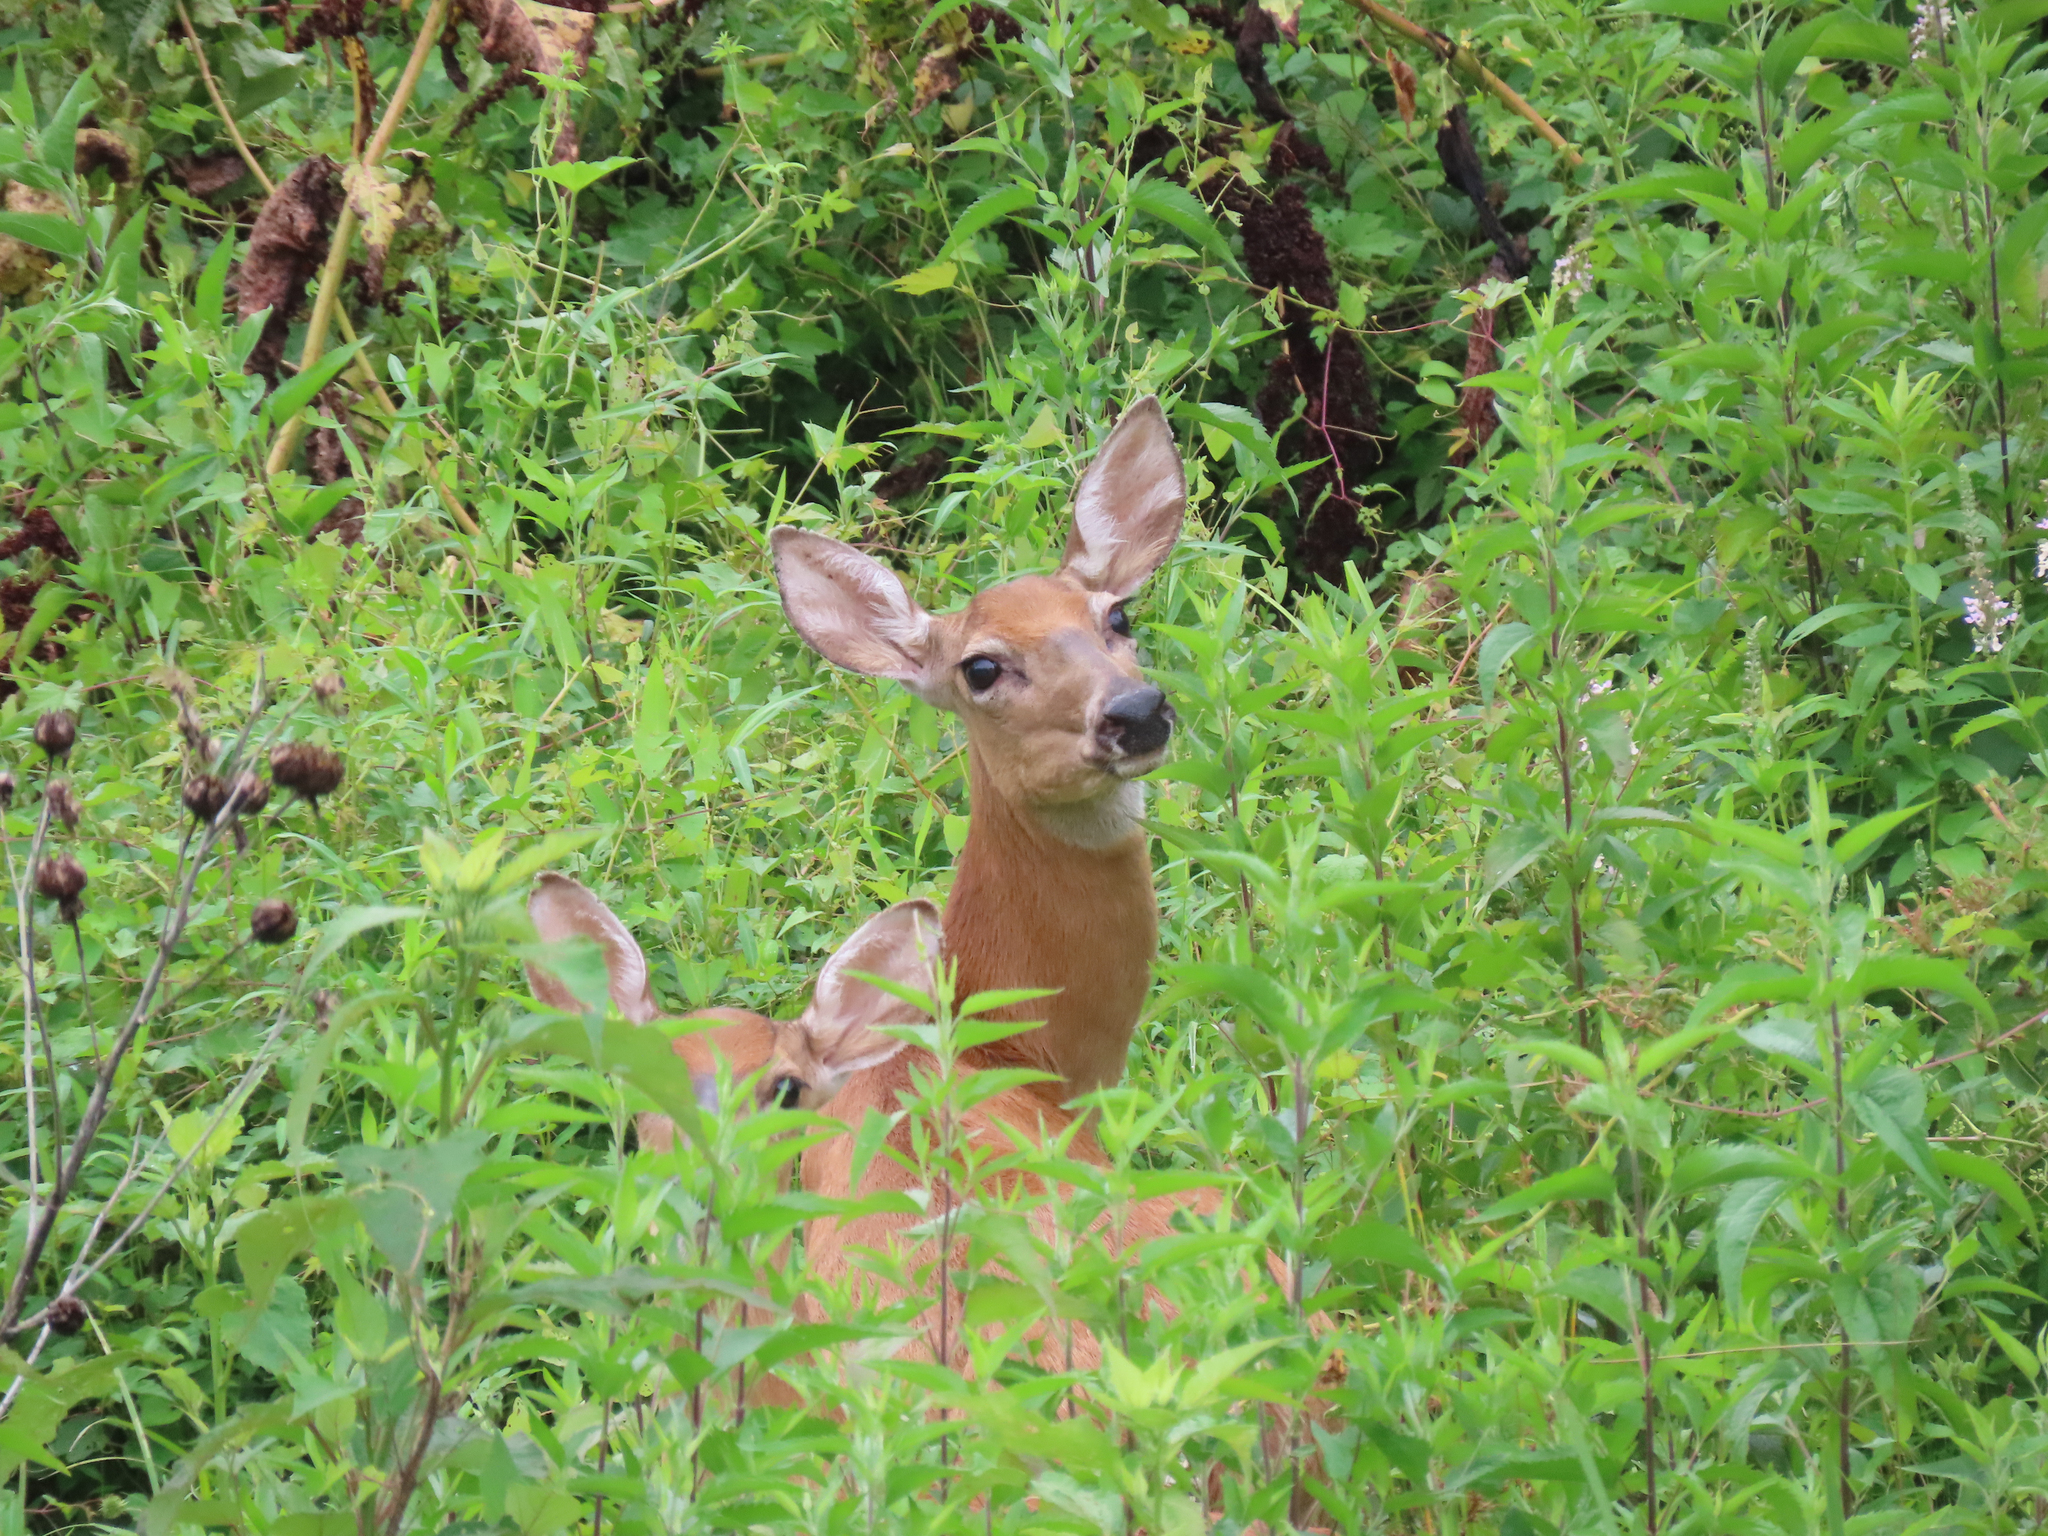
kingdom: Animalia
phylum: Chordata
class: Mammalia
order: Artiodactyla
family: Cervidae
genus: Odocoileus
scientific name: Odocoileus virginianus
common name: White-tailed deer
